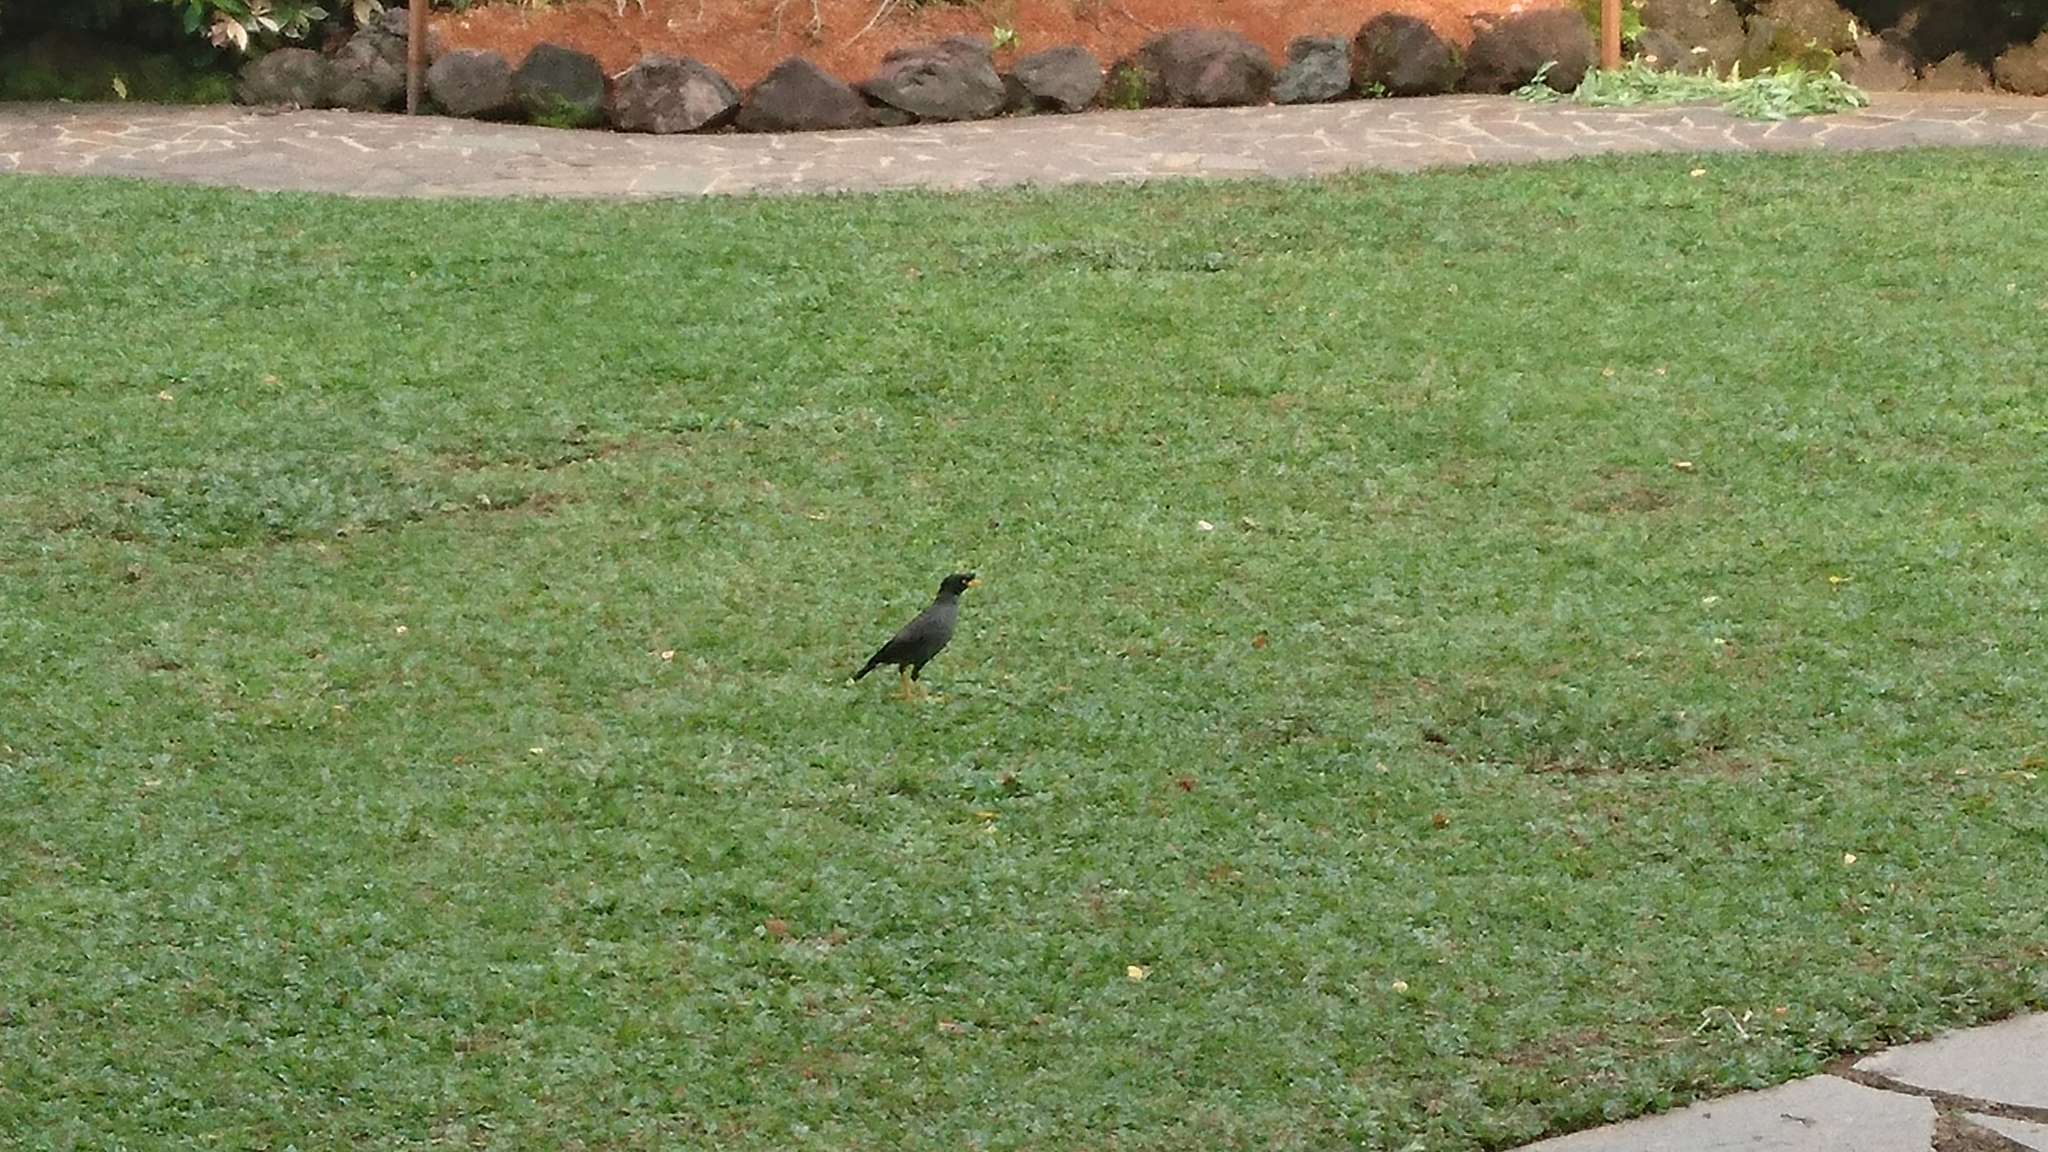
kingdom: Animalia
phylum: Chordata
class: Aves
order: Passeriformes
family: Sturnidae
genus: Acridotheres
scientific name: Acridotheres javanicus
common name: Javan myna
